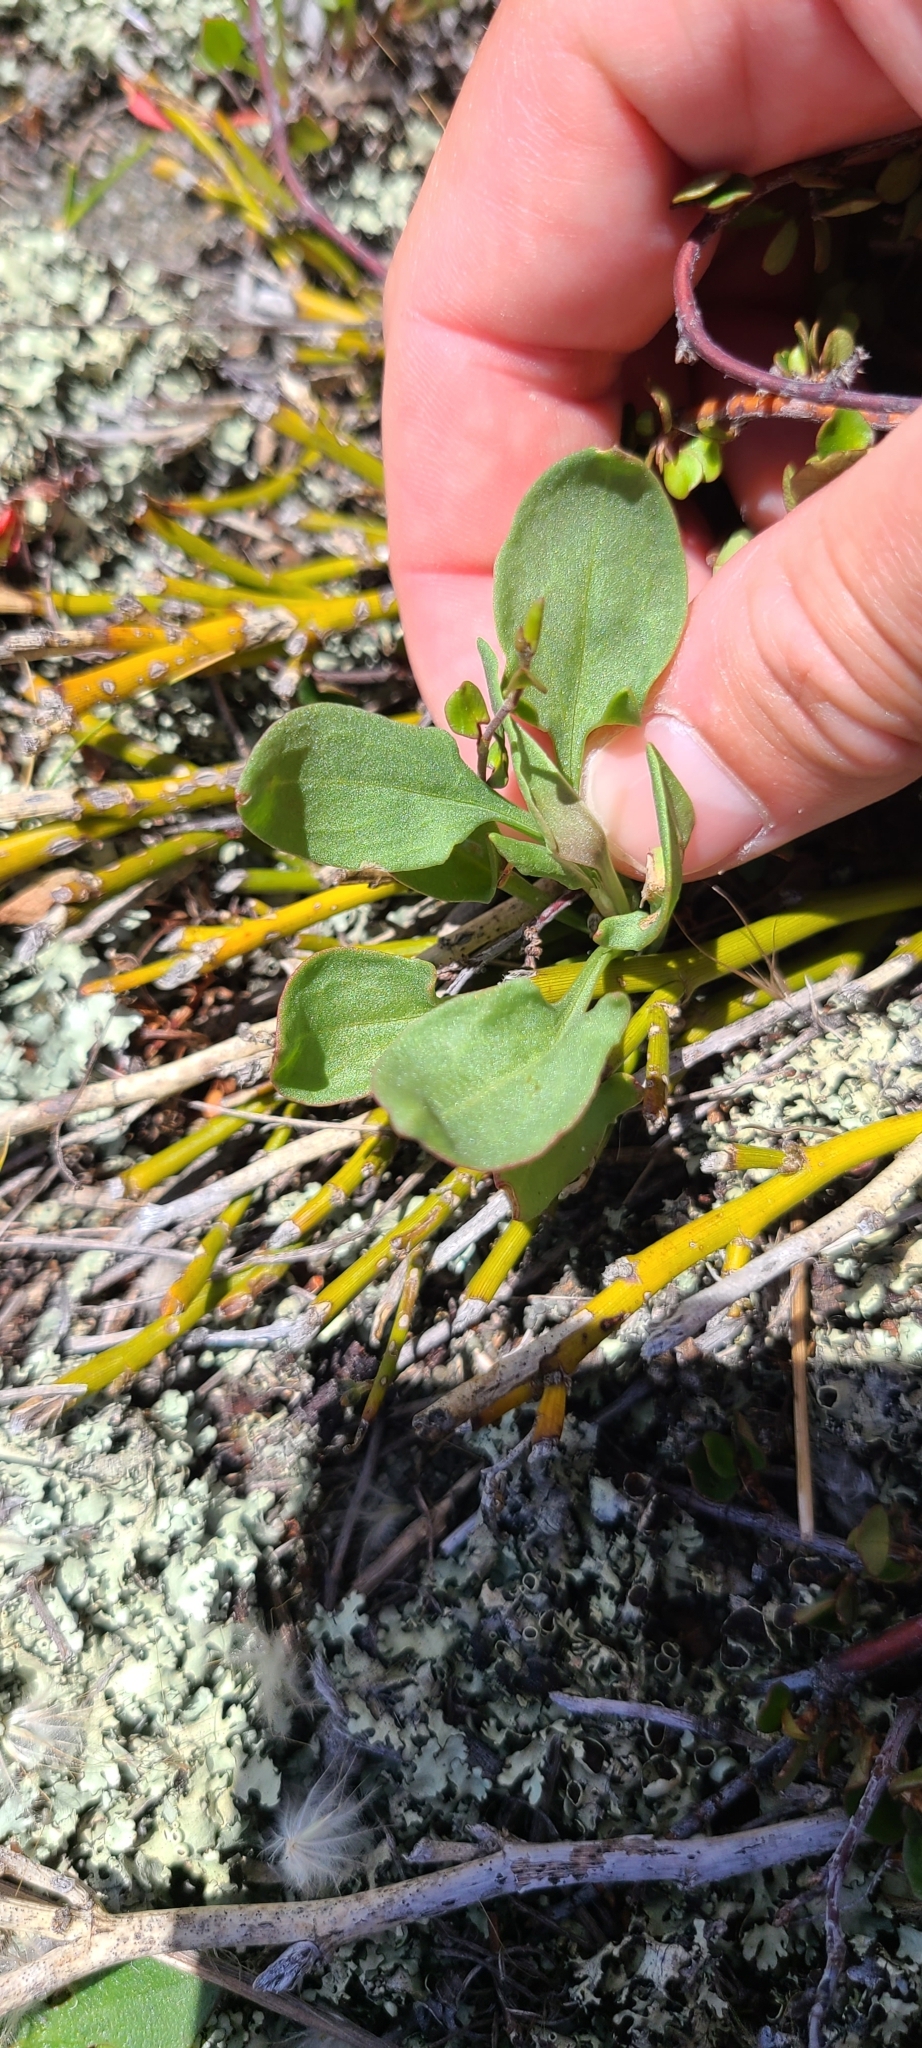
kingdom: Plantae
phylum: Tracheophyta
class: Magnoliopsida
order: Caryophyllales
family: Polygonaceae
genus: Rumex
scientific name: Rumex acetosella
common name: Common sheep sorrel
